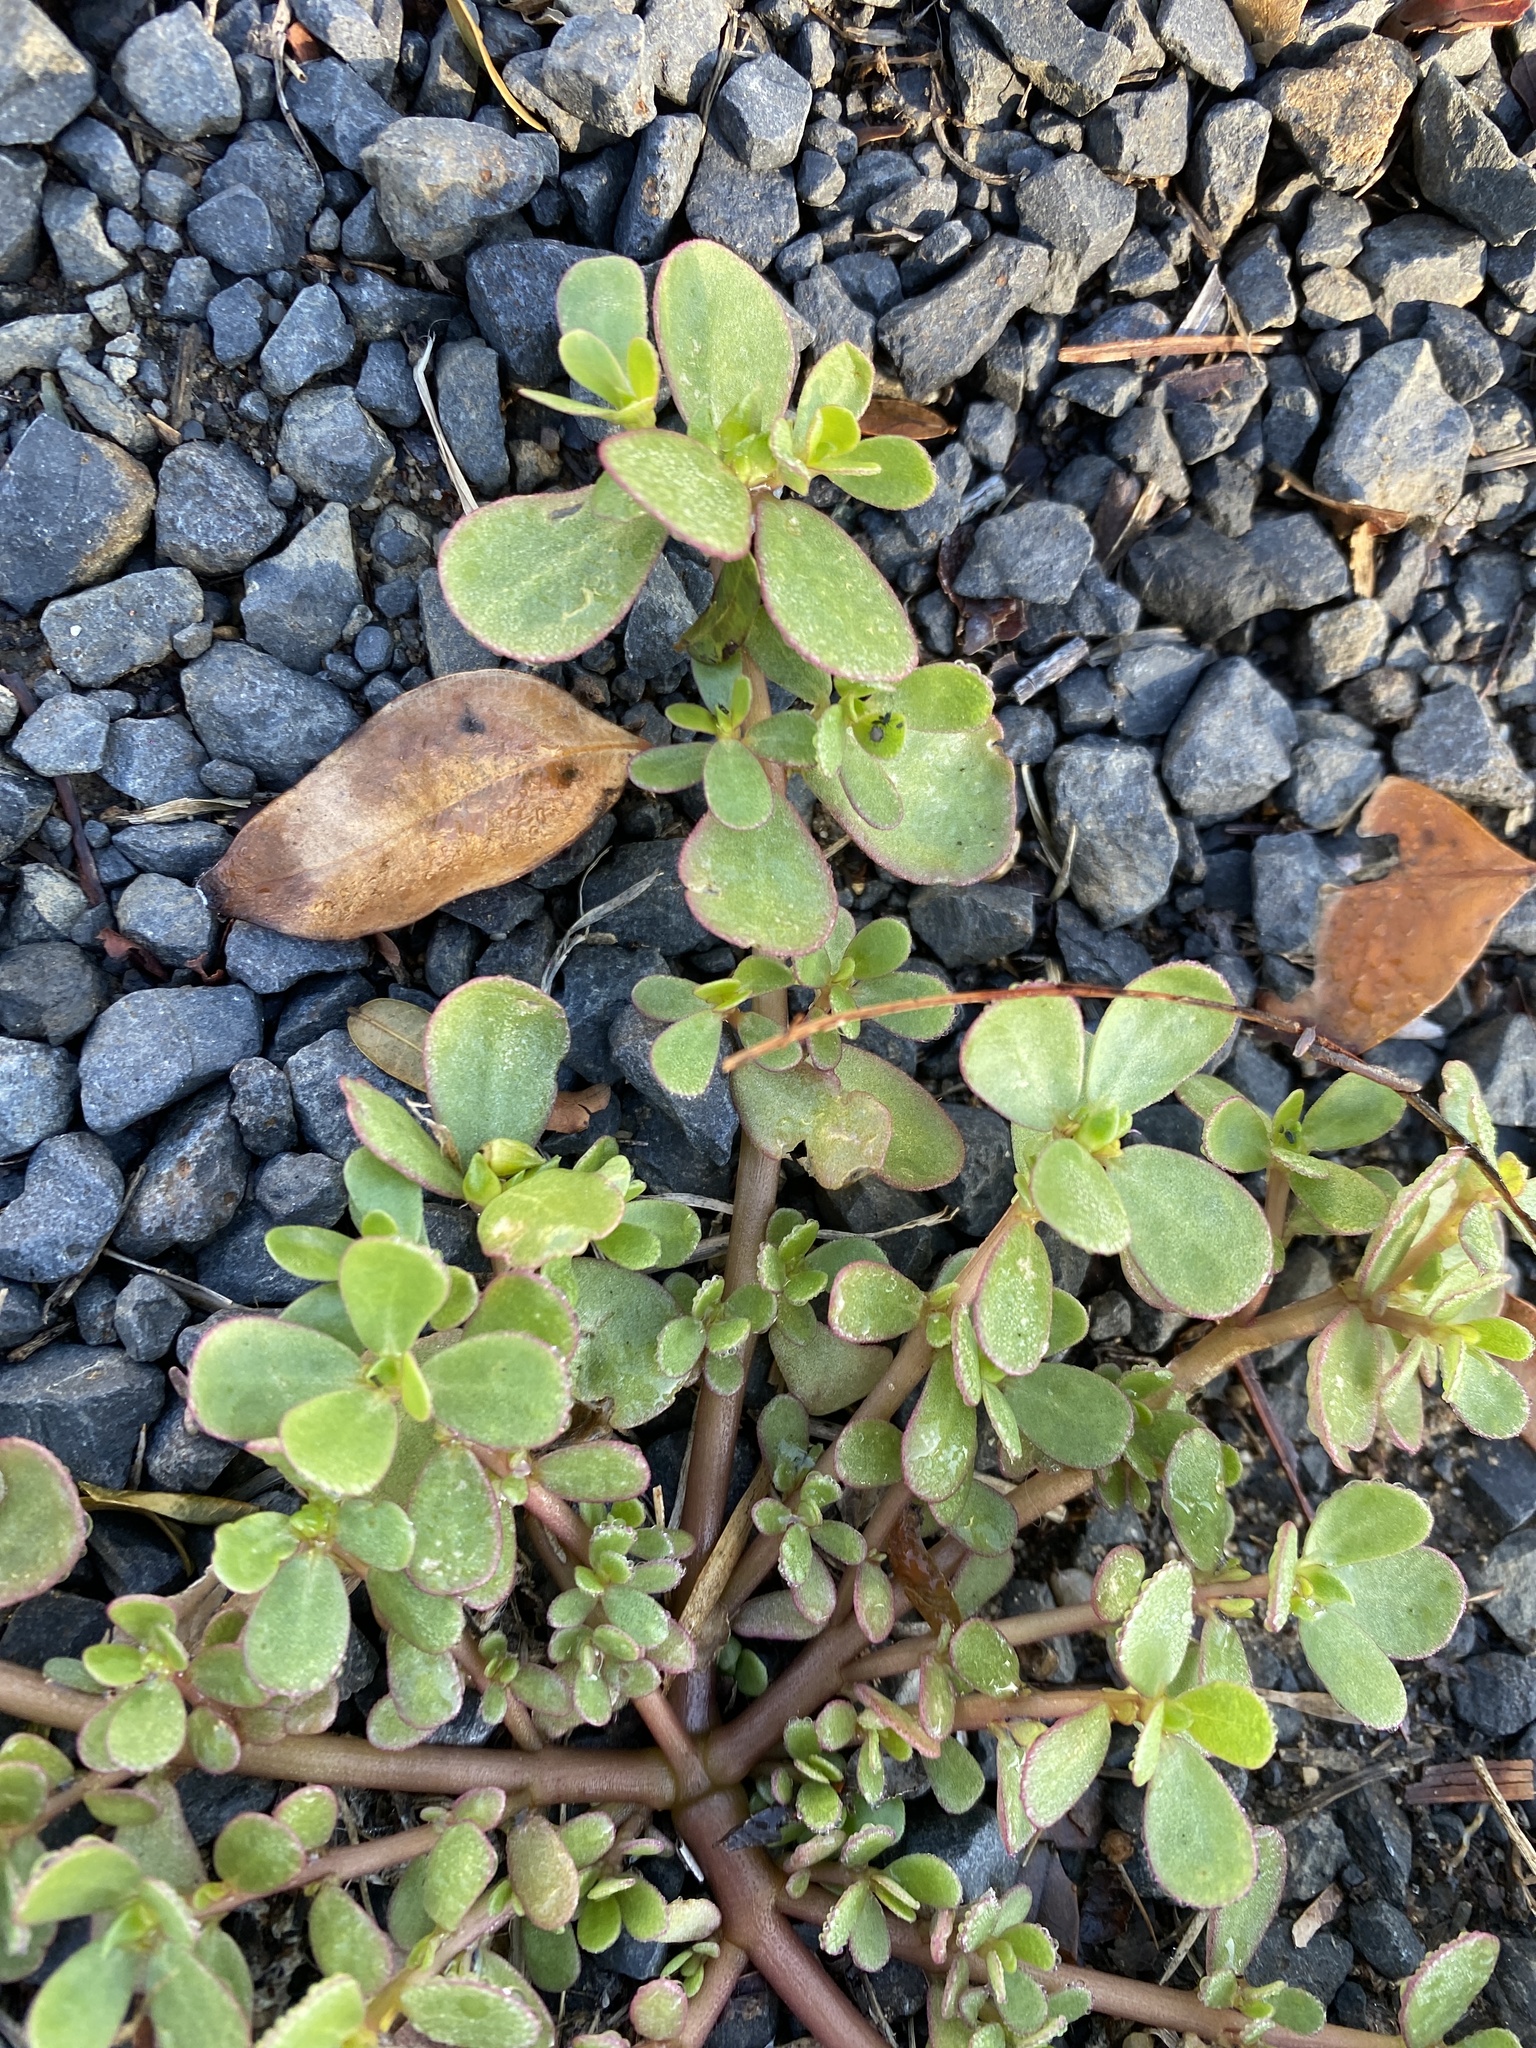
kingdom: Plantae
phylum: Tracheophyta
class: Magnoliopsida
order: Caryophyllales
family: Portulacaceae
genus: Portulaca
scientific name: Portulaca oleracea
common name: Common purslane
